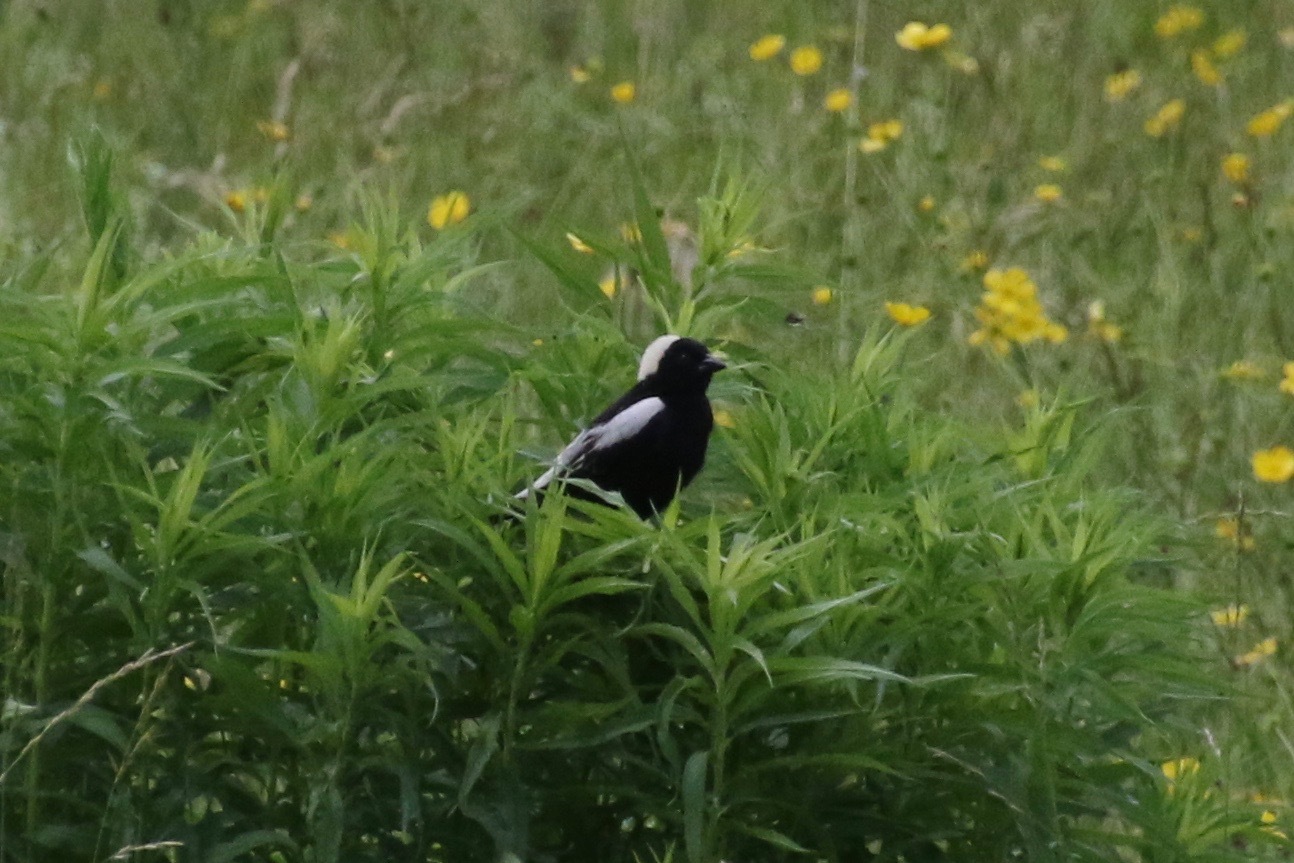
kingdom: Animalia
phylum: Chordata
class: Aves
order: Passeriformes
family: Icteridae
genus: Dolichonyx
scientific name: Dolichonyx oryzivorus
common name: Bobolink
